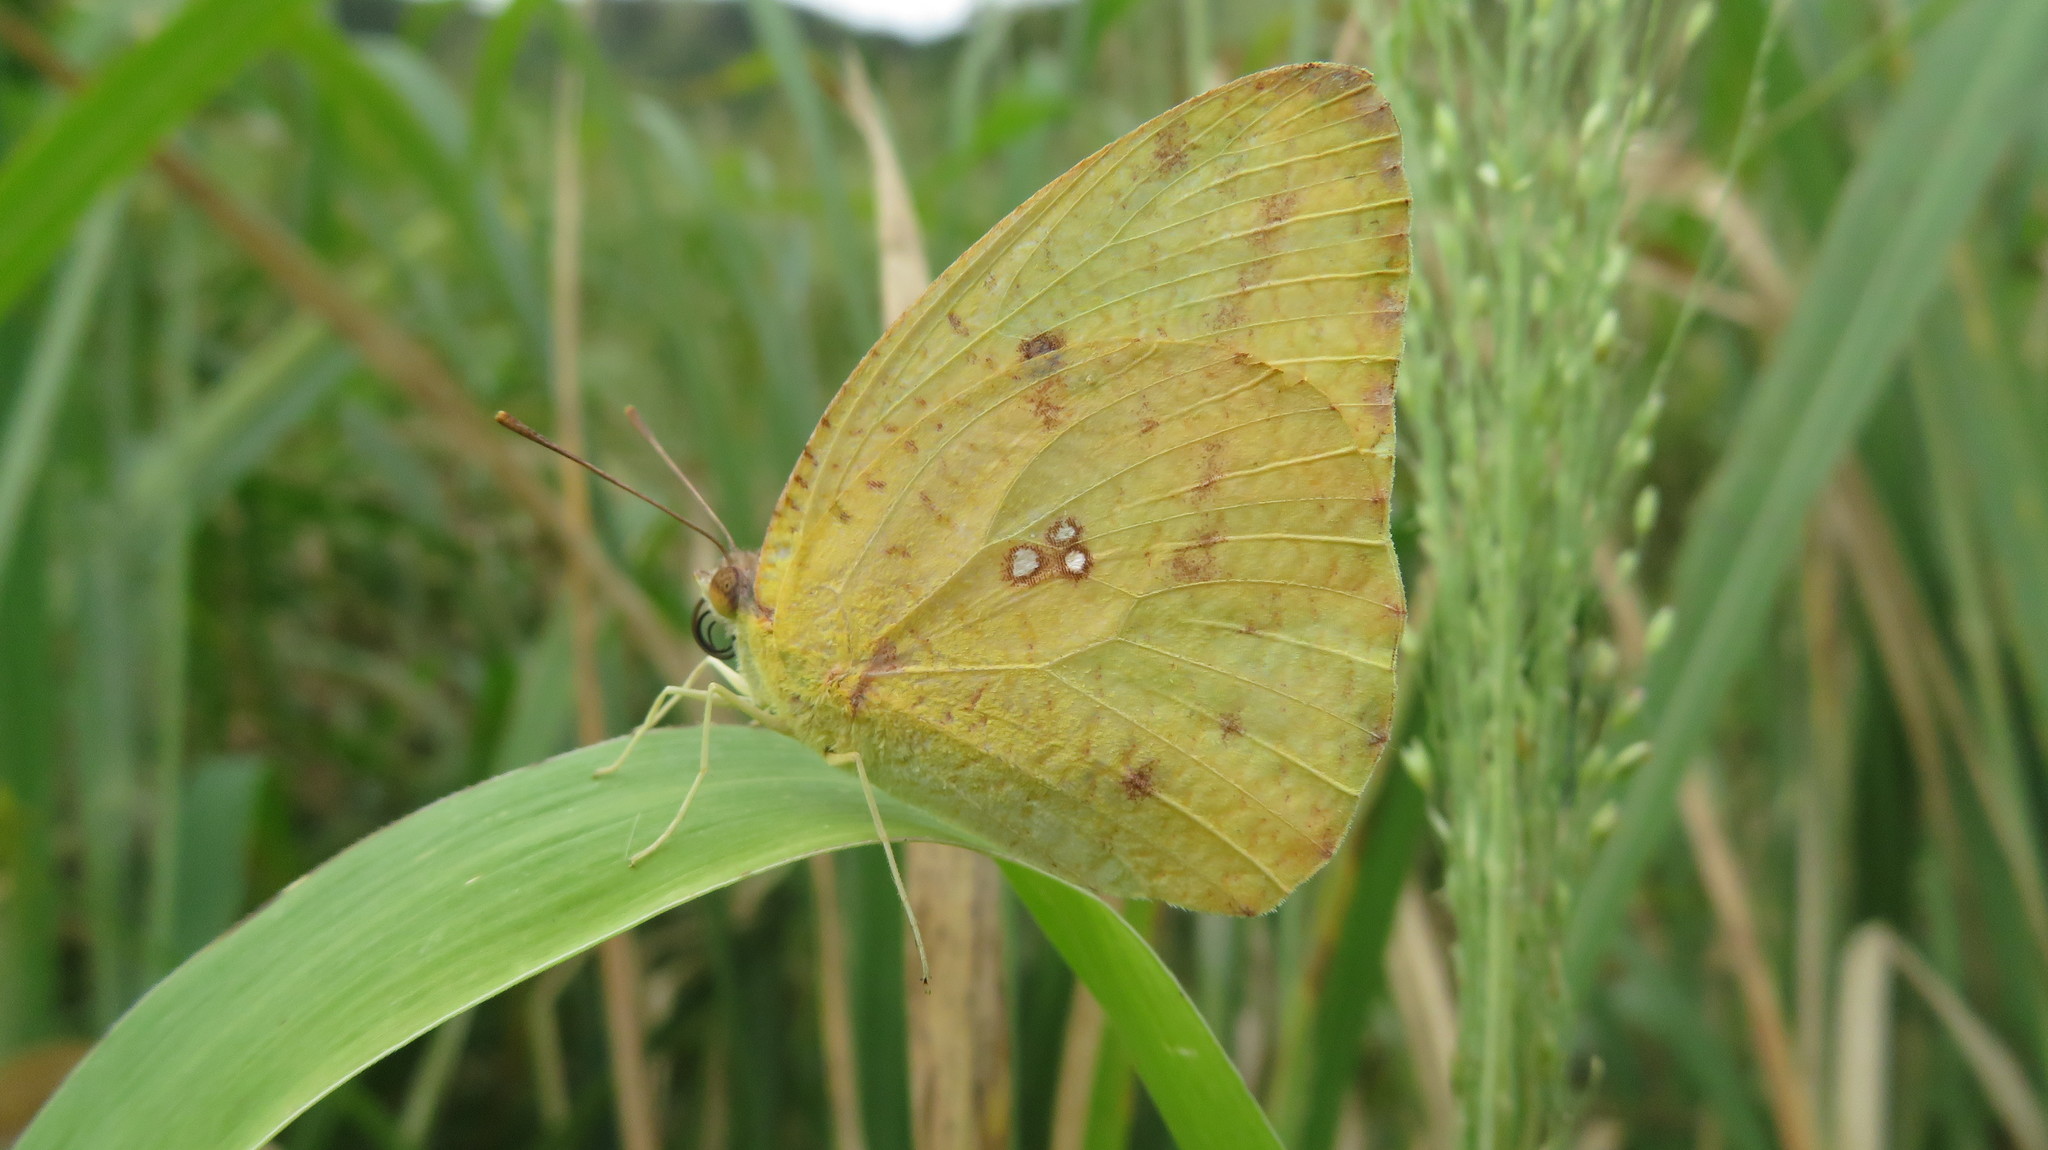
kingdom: Animalia
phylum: Arthropoda
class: Insecta
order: Lepidoptera
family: Pieridae
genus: Catopsilia
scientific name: Catopsilia florella
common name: African migrant
